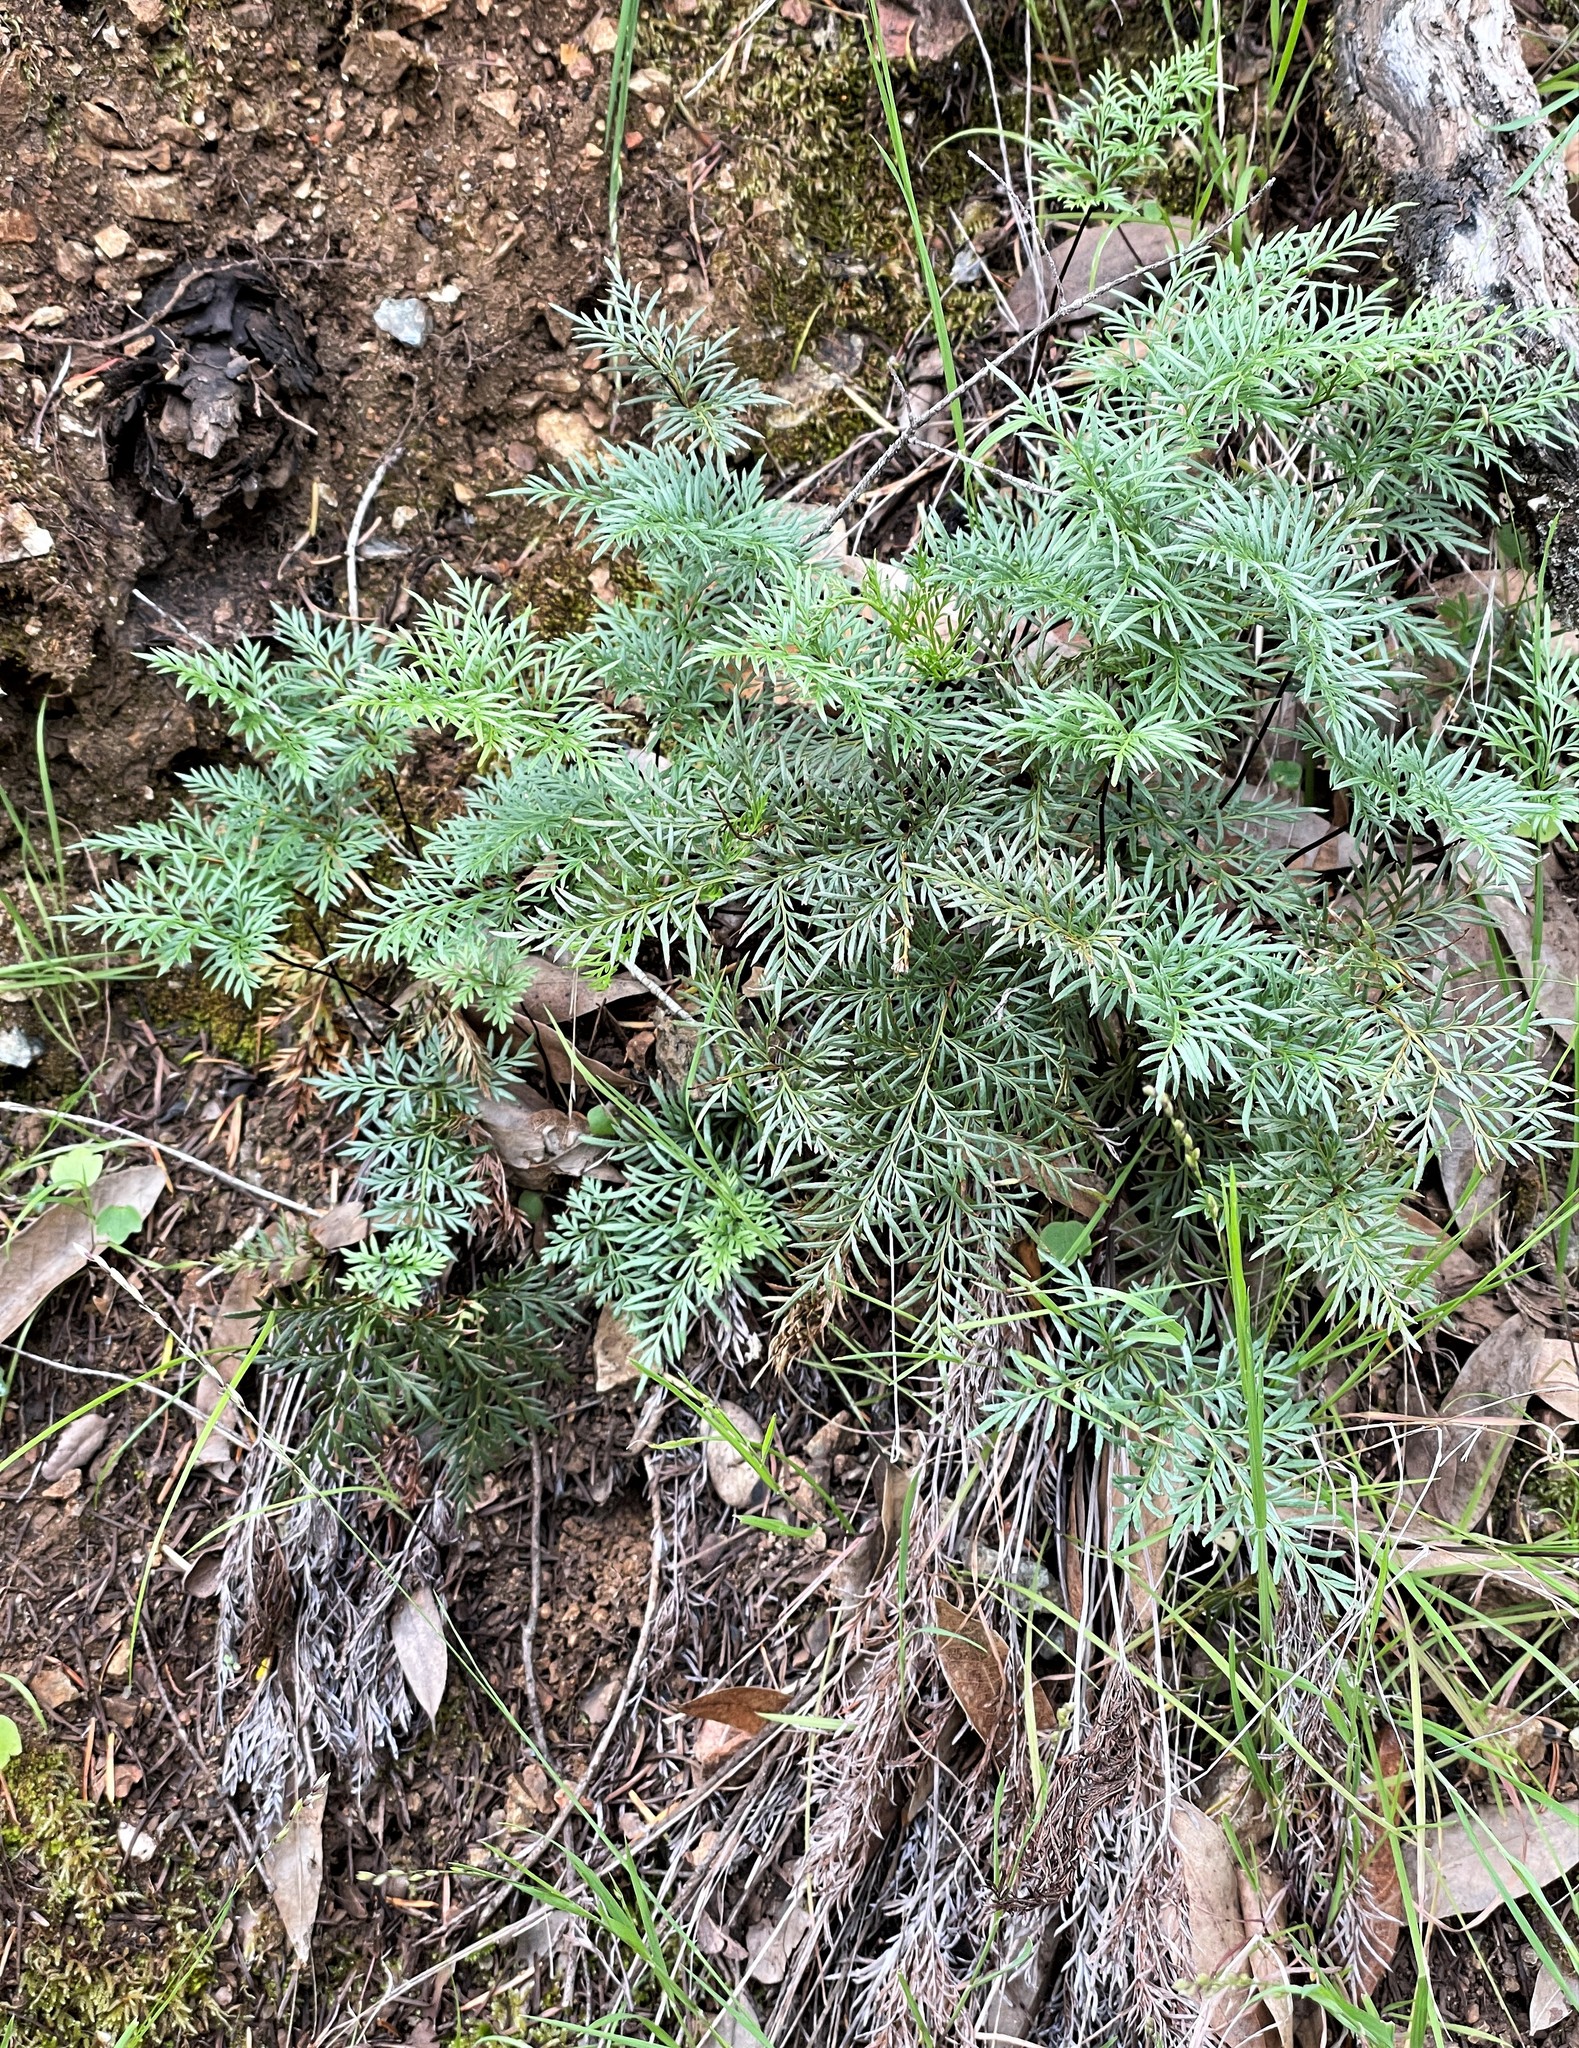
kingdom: Plantae
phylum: Tracheophyta
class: Polypodiopsida
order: Polypodiales
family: Pteridaceae
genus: Aspidotis
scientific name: Aspidotis densa
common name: Indian's dream
